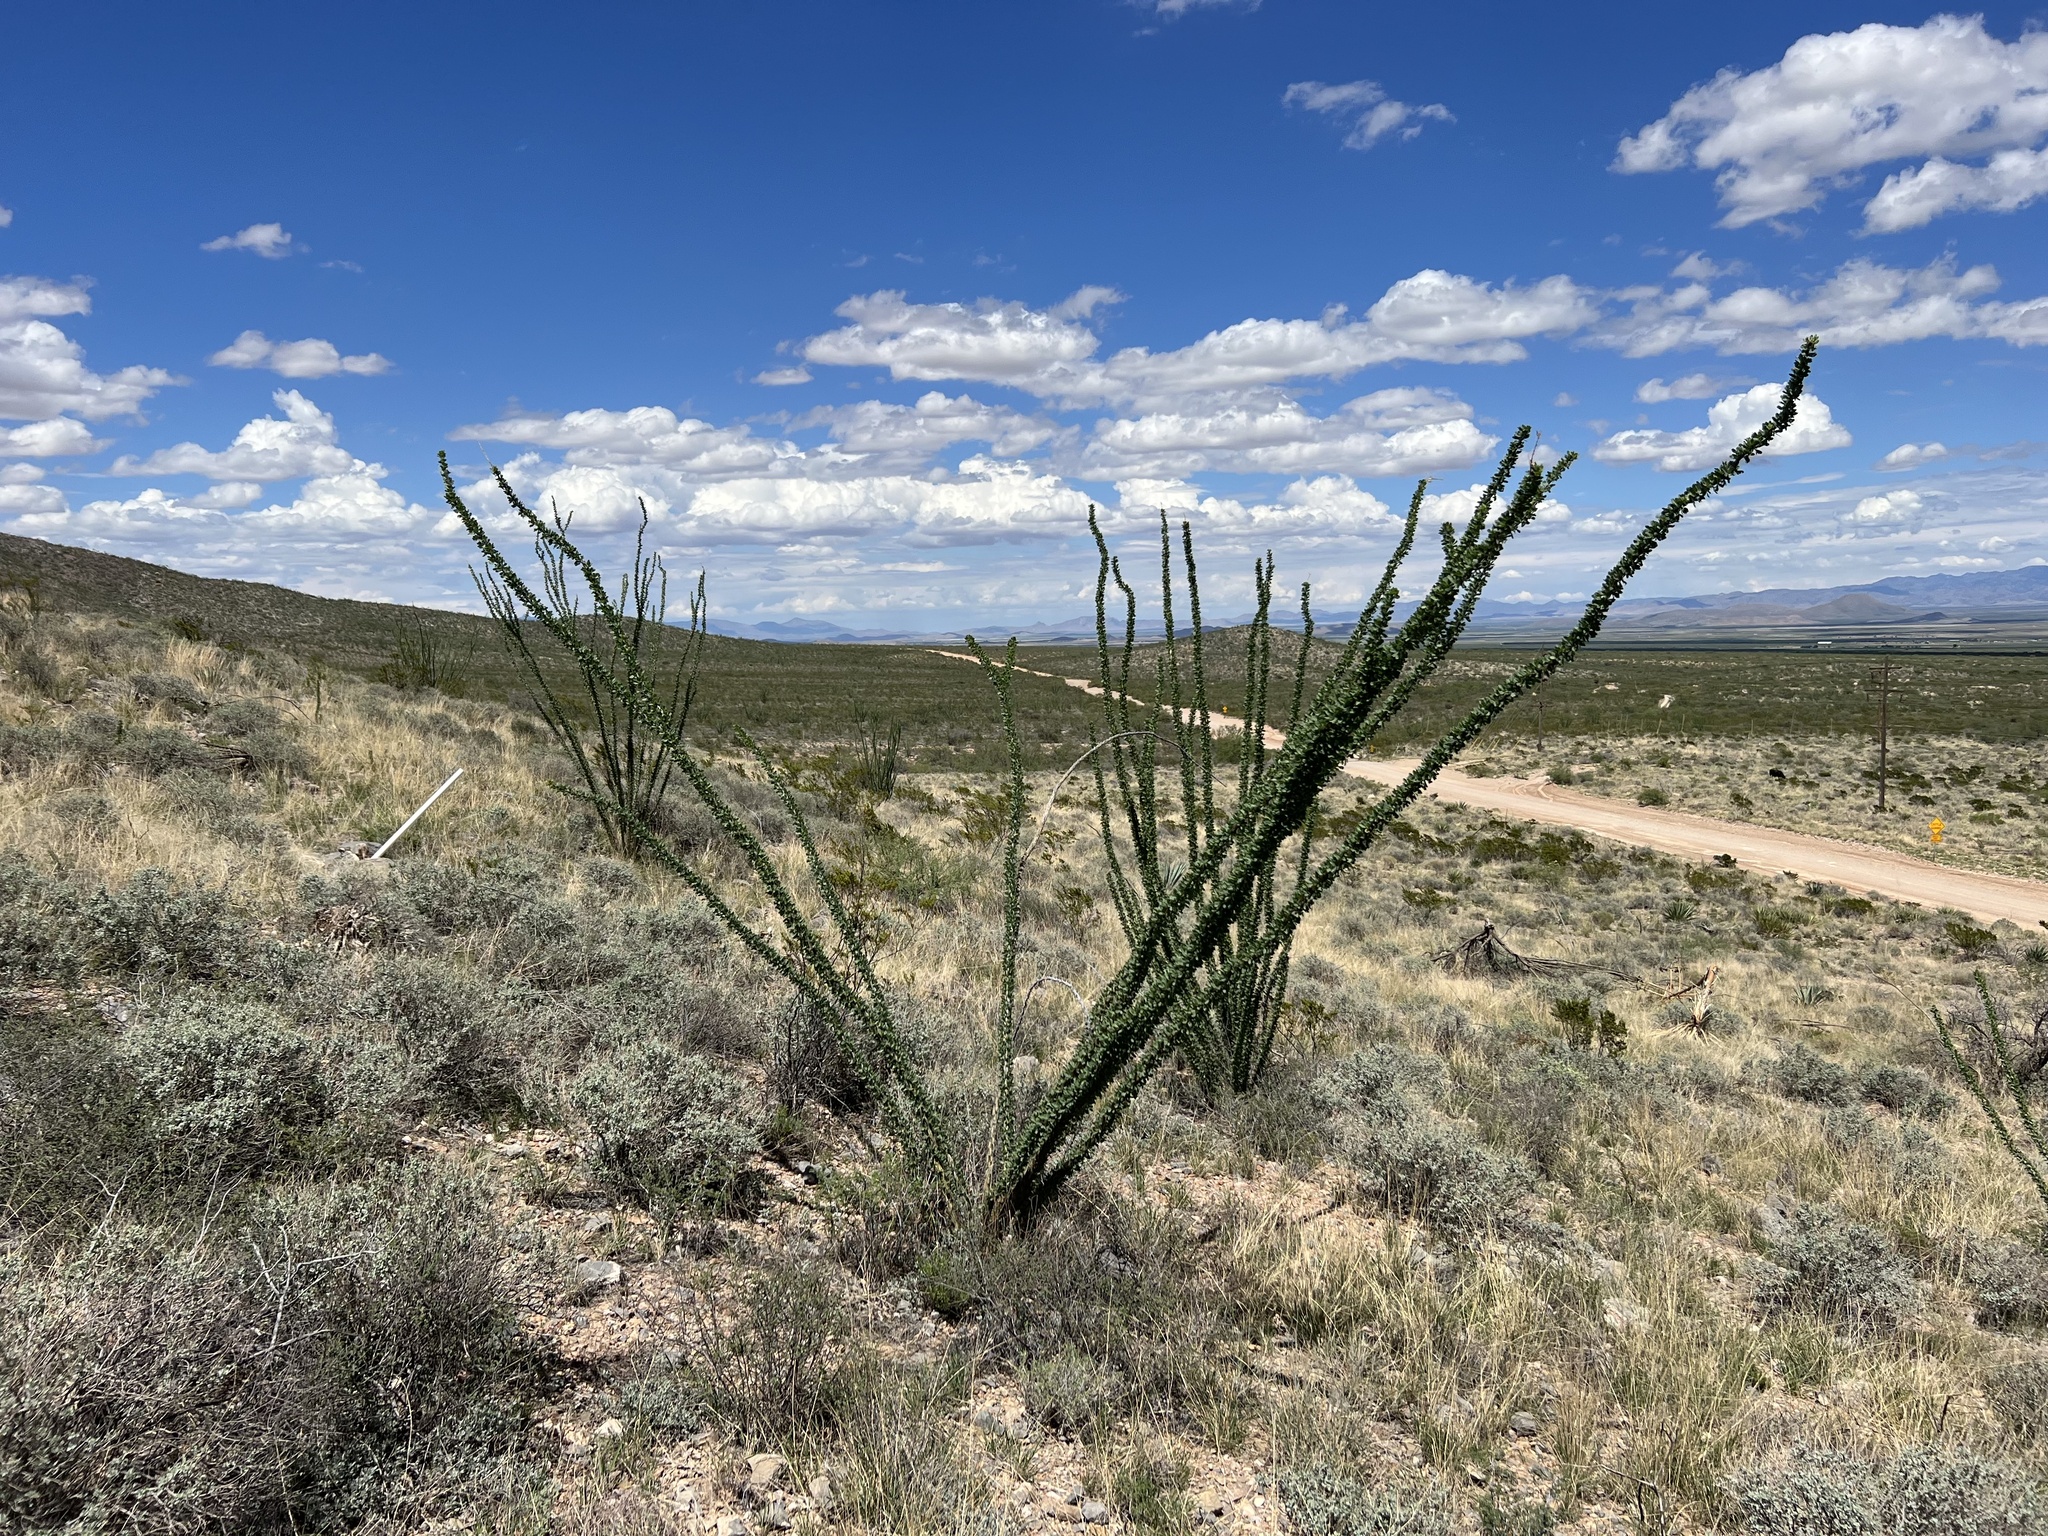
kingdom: Plantae
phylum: Tracheophyta
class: Magnoliopsida
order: Ericales
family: Fouquieriaceae
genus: Fouquieria
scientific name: Fouquieria splendens
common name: Vine-cactus
